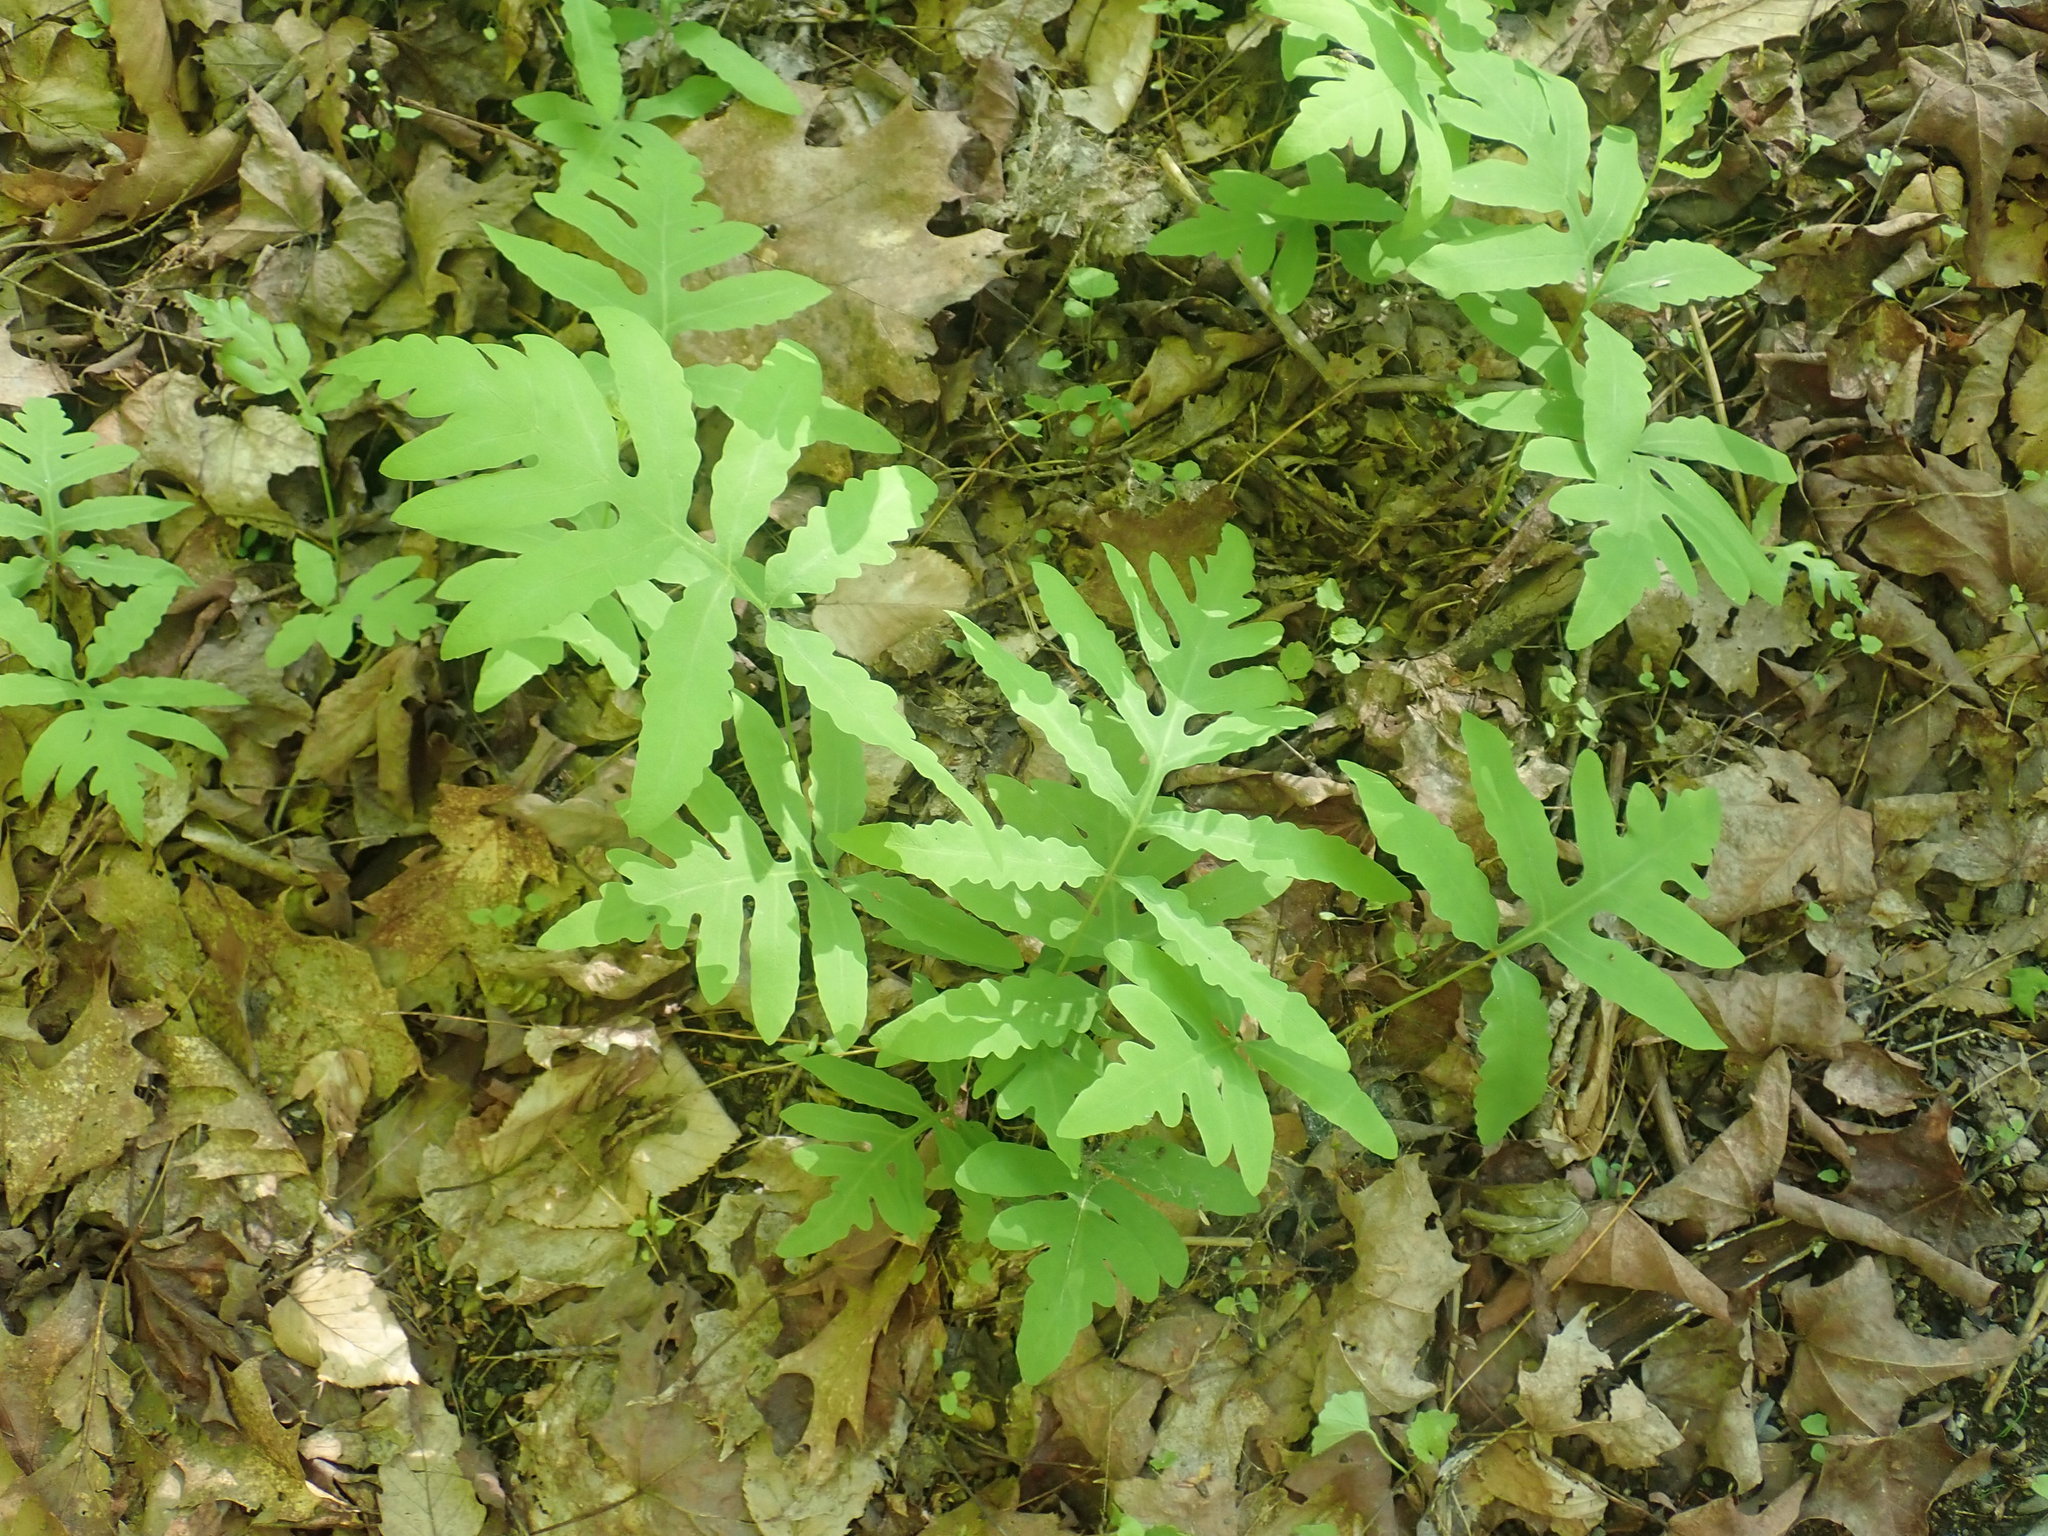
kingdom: Plantae
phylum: Tracheophyta
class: Polypodiopsida
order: Polypodiales
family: Onocleaceae
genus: Onoclea
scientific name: Onoclea sensibilis
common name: Sensitive fern
